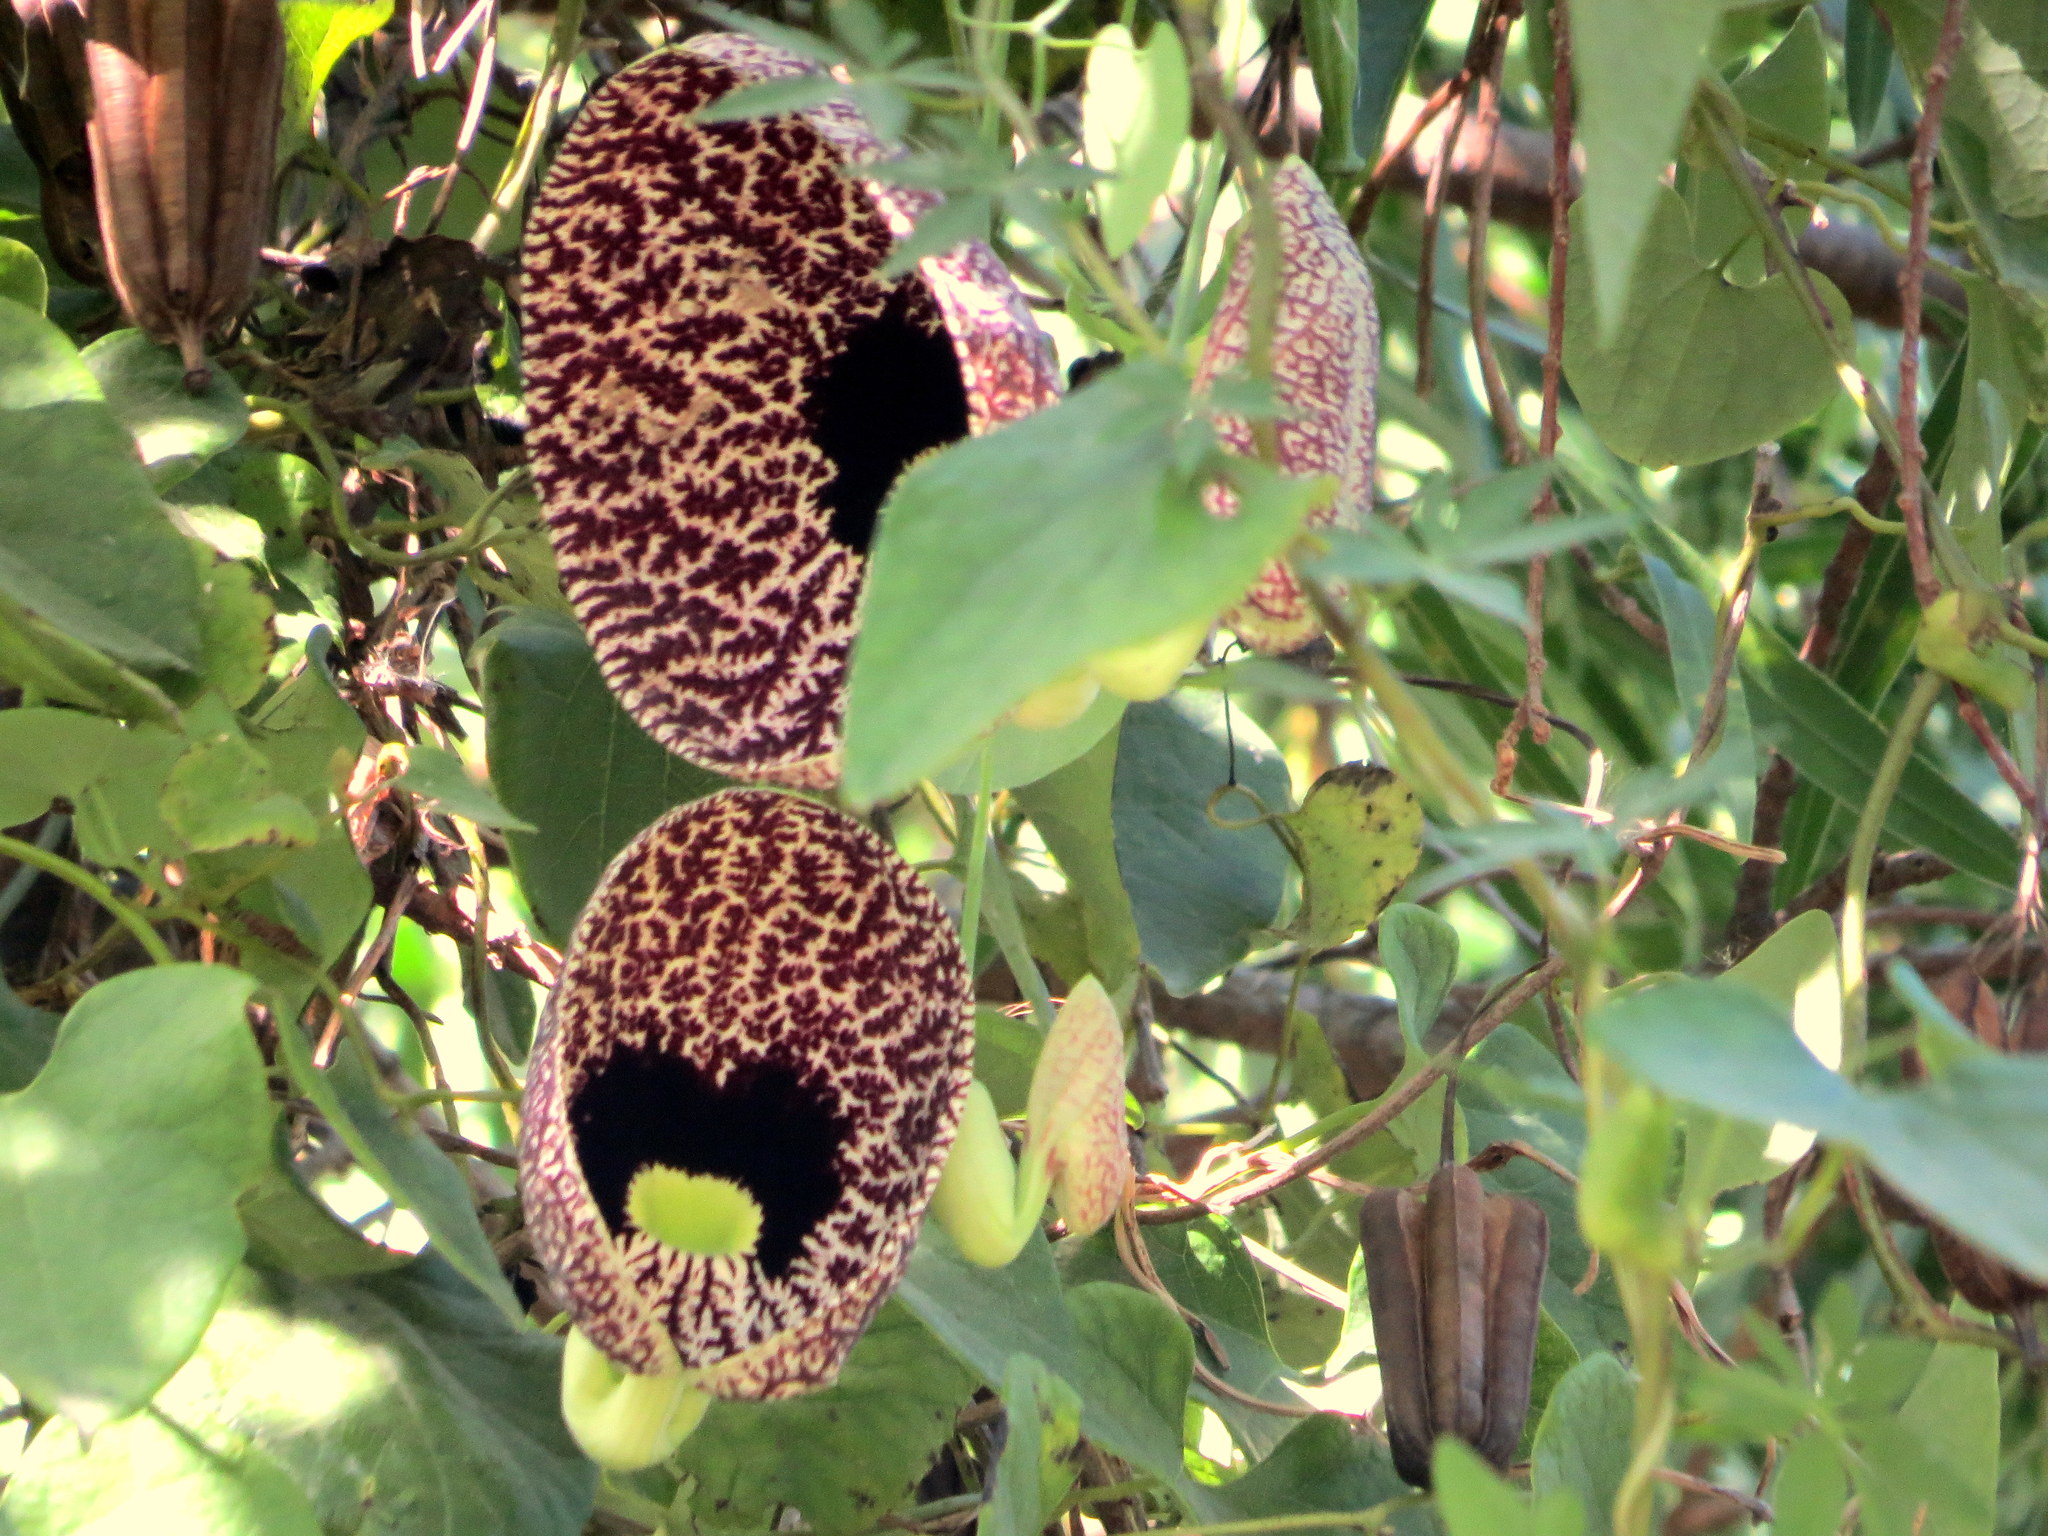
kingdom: Plantae
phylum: Tracheophyta
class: Magnoliopsida
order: Piperales
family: Aristolochiaceae
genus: Aristolochia
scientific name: Aristolochia littoralis
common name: Duck
